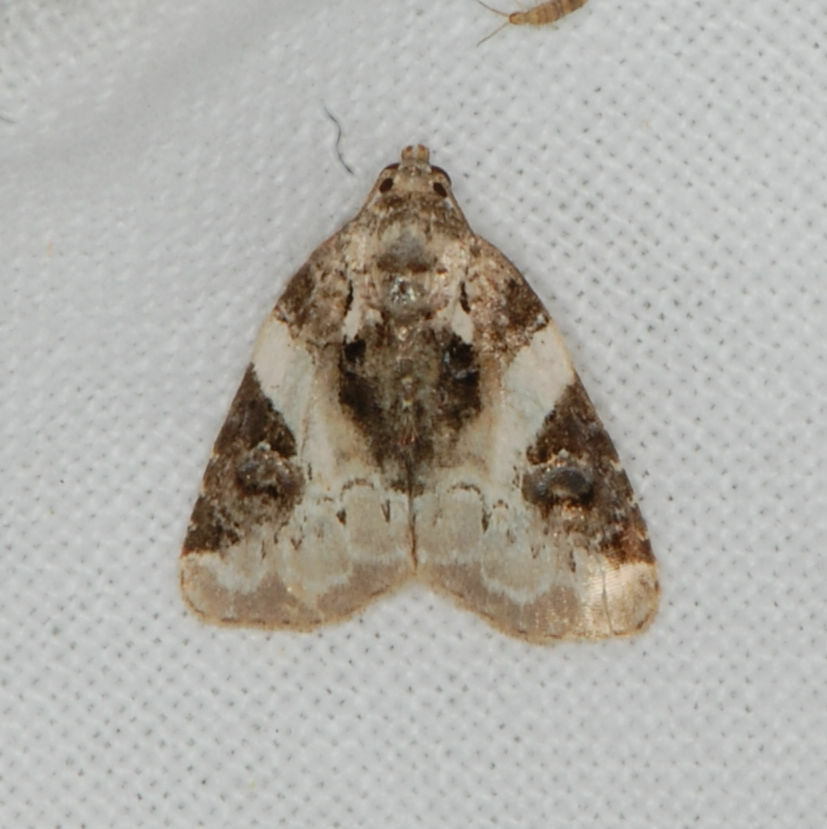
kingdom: Animalia
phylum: Arthropoda
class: Insecta
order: Lepidoptera
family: Noctuidae
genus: Pseudeustrotia
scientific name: Pseudeustrotia carneola
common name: Pink-barred lithacodia moth
